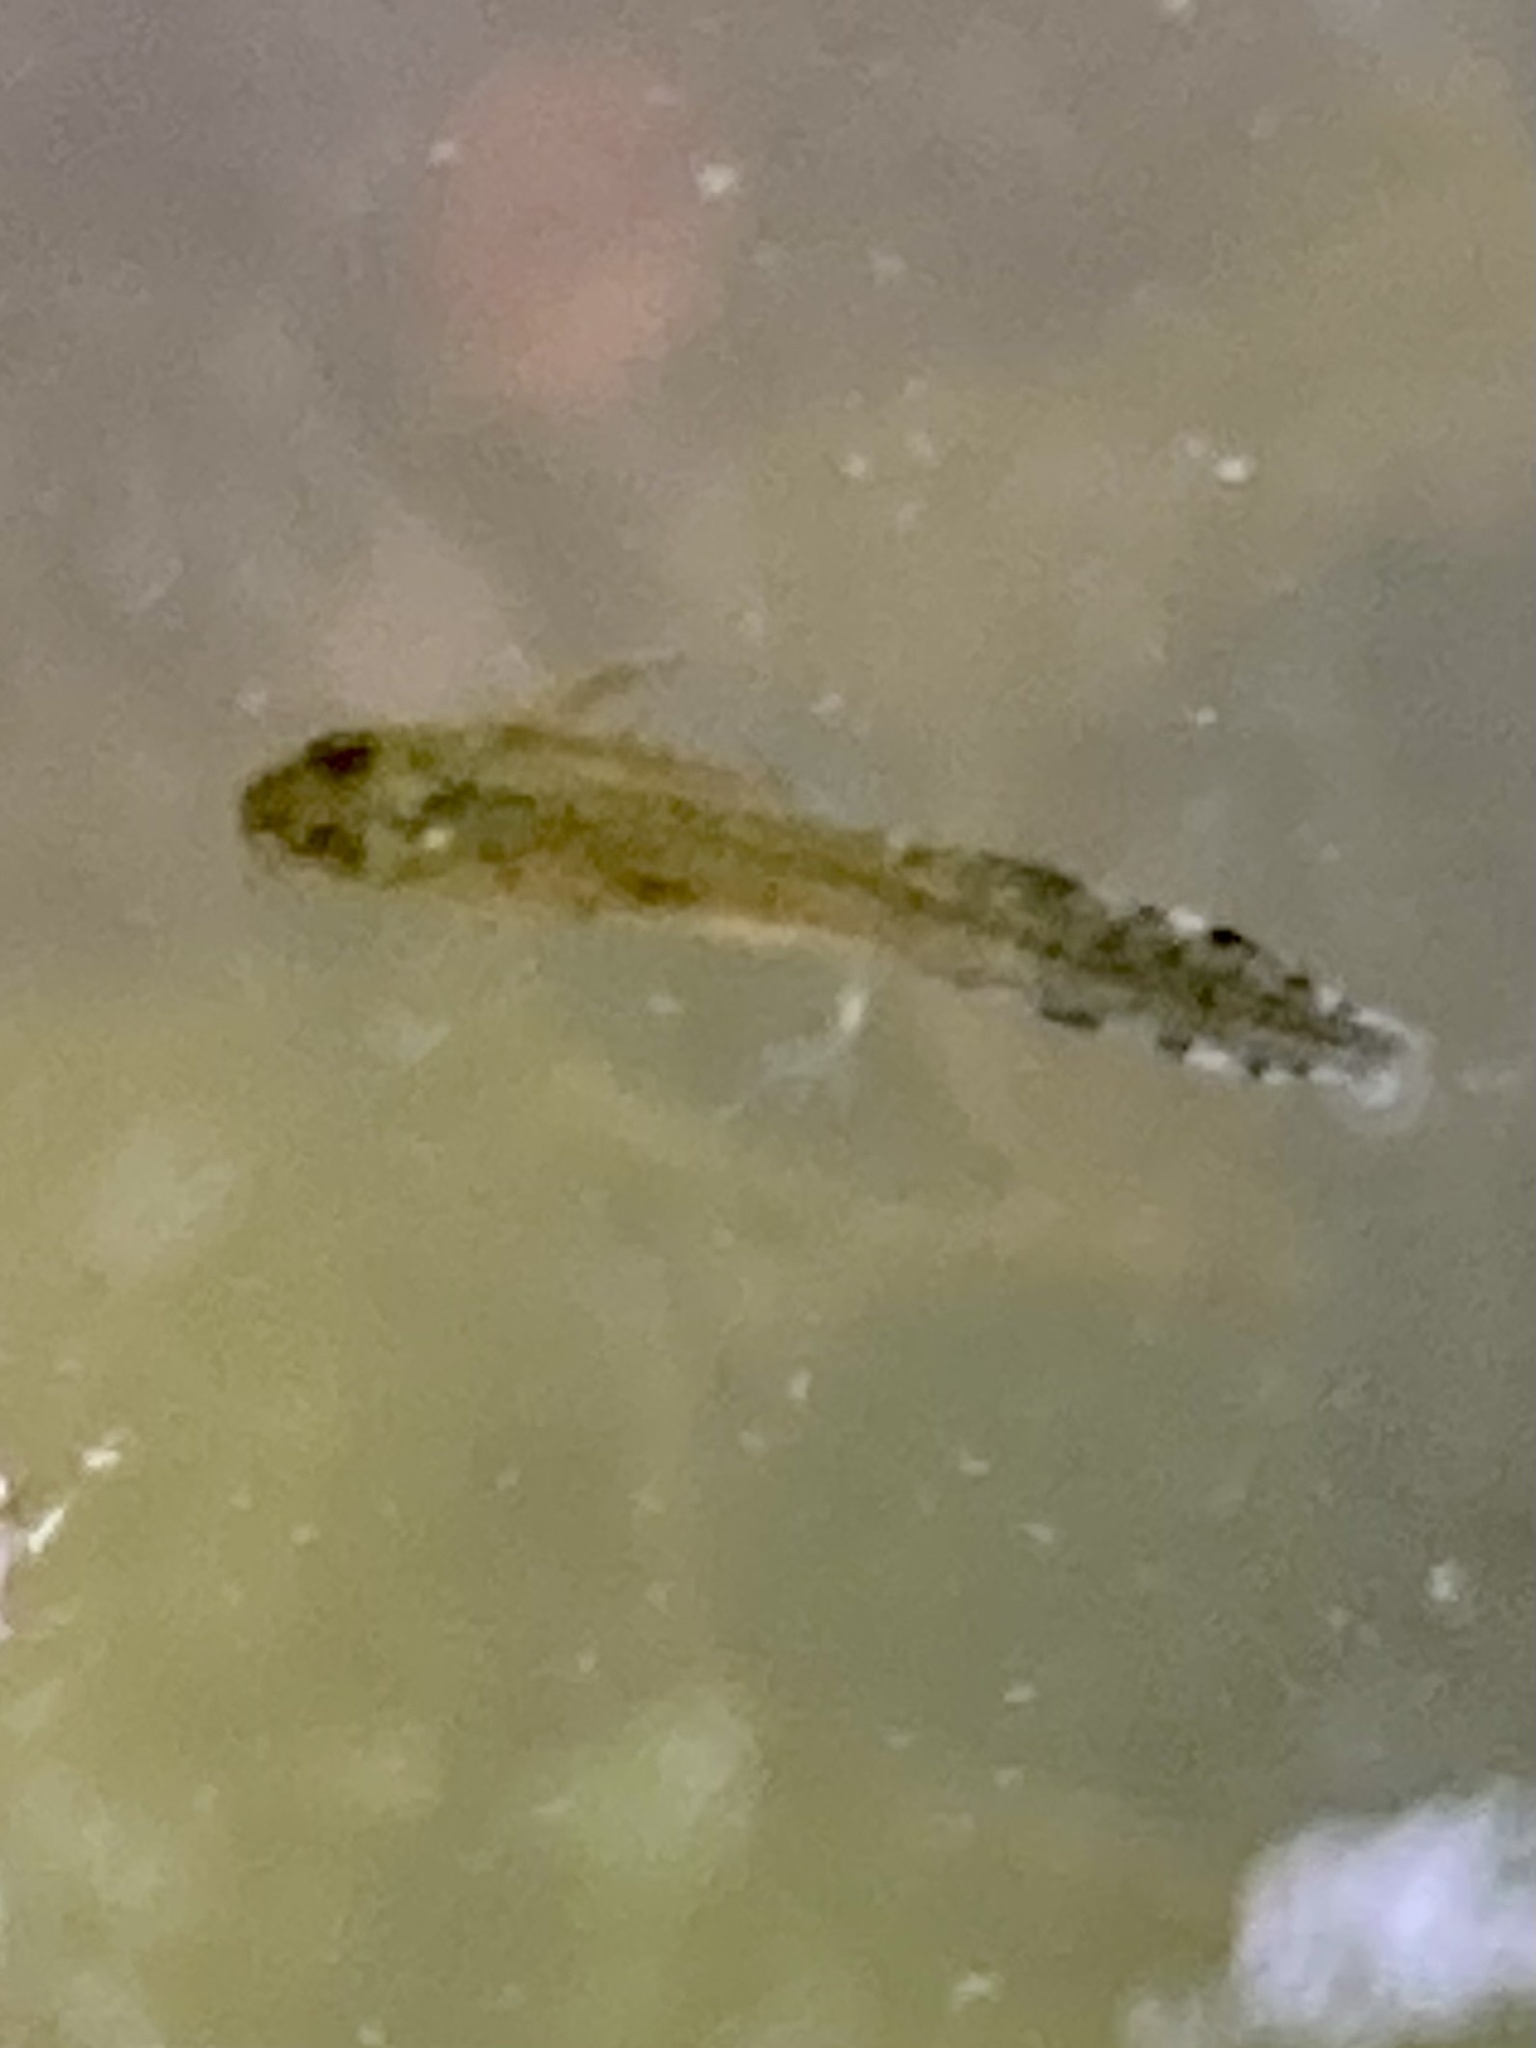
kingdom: Animalia
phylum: Chordata
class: Amphibia
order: Caudata
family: Salamandridae
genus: Triturus
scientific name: Triturus carnifex
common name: Italian crested newt
